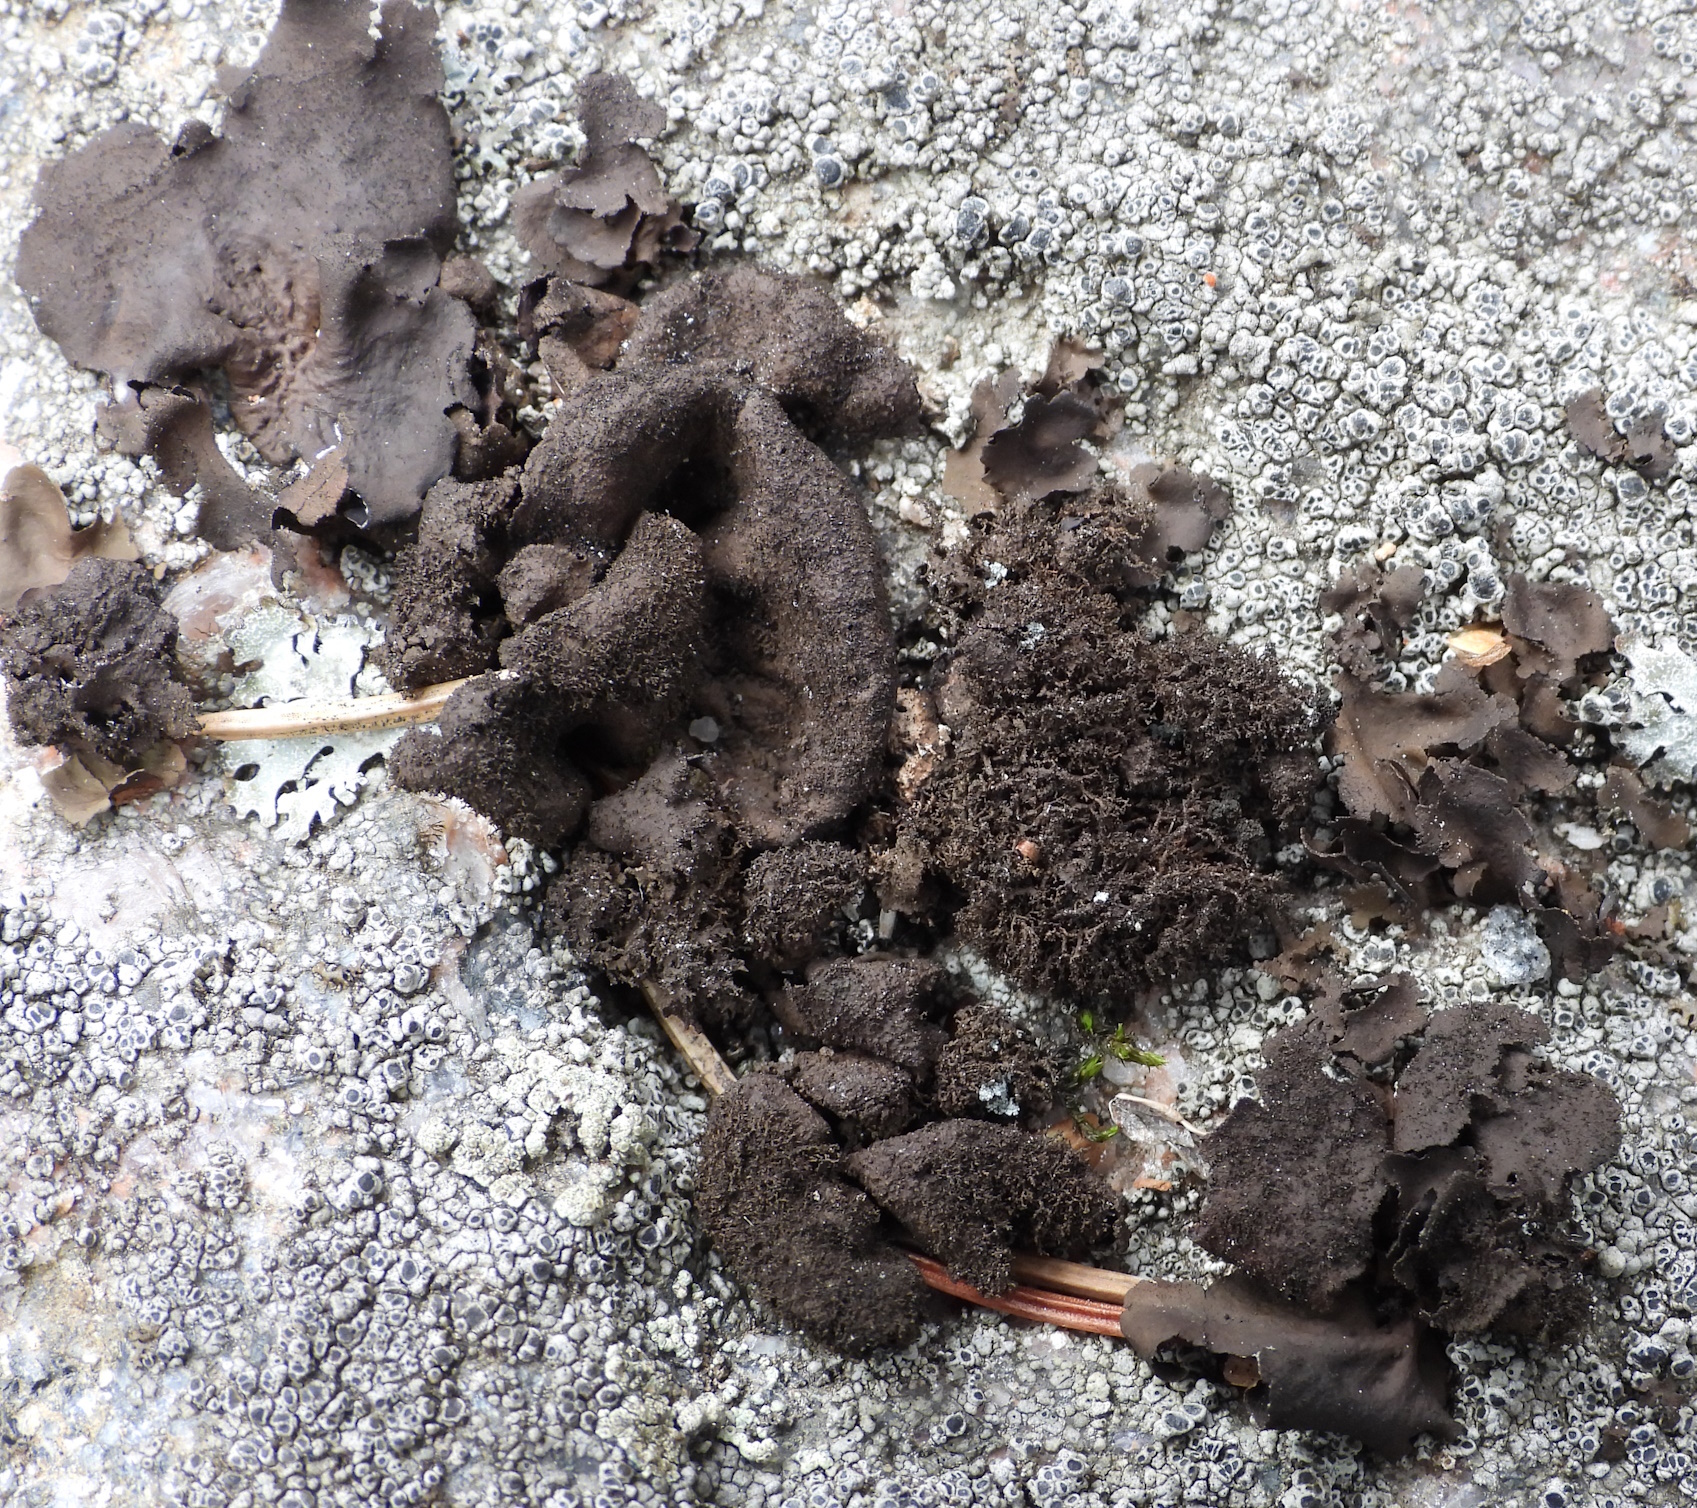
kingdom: Fungi
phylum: Ascomycota
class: Lecanoromycetes
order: Umbilicariales
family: Umbilicariaceae
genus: Umbilicaria
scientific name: Umbilicaria deusta
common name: Peppered rock tripe
